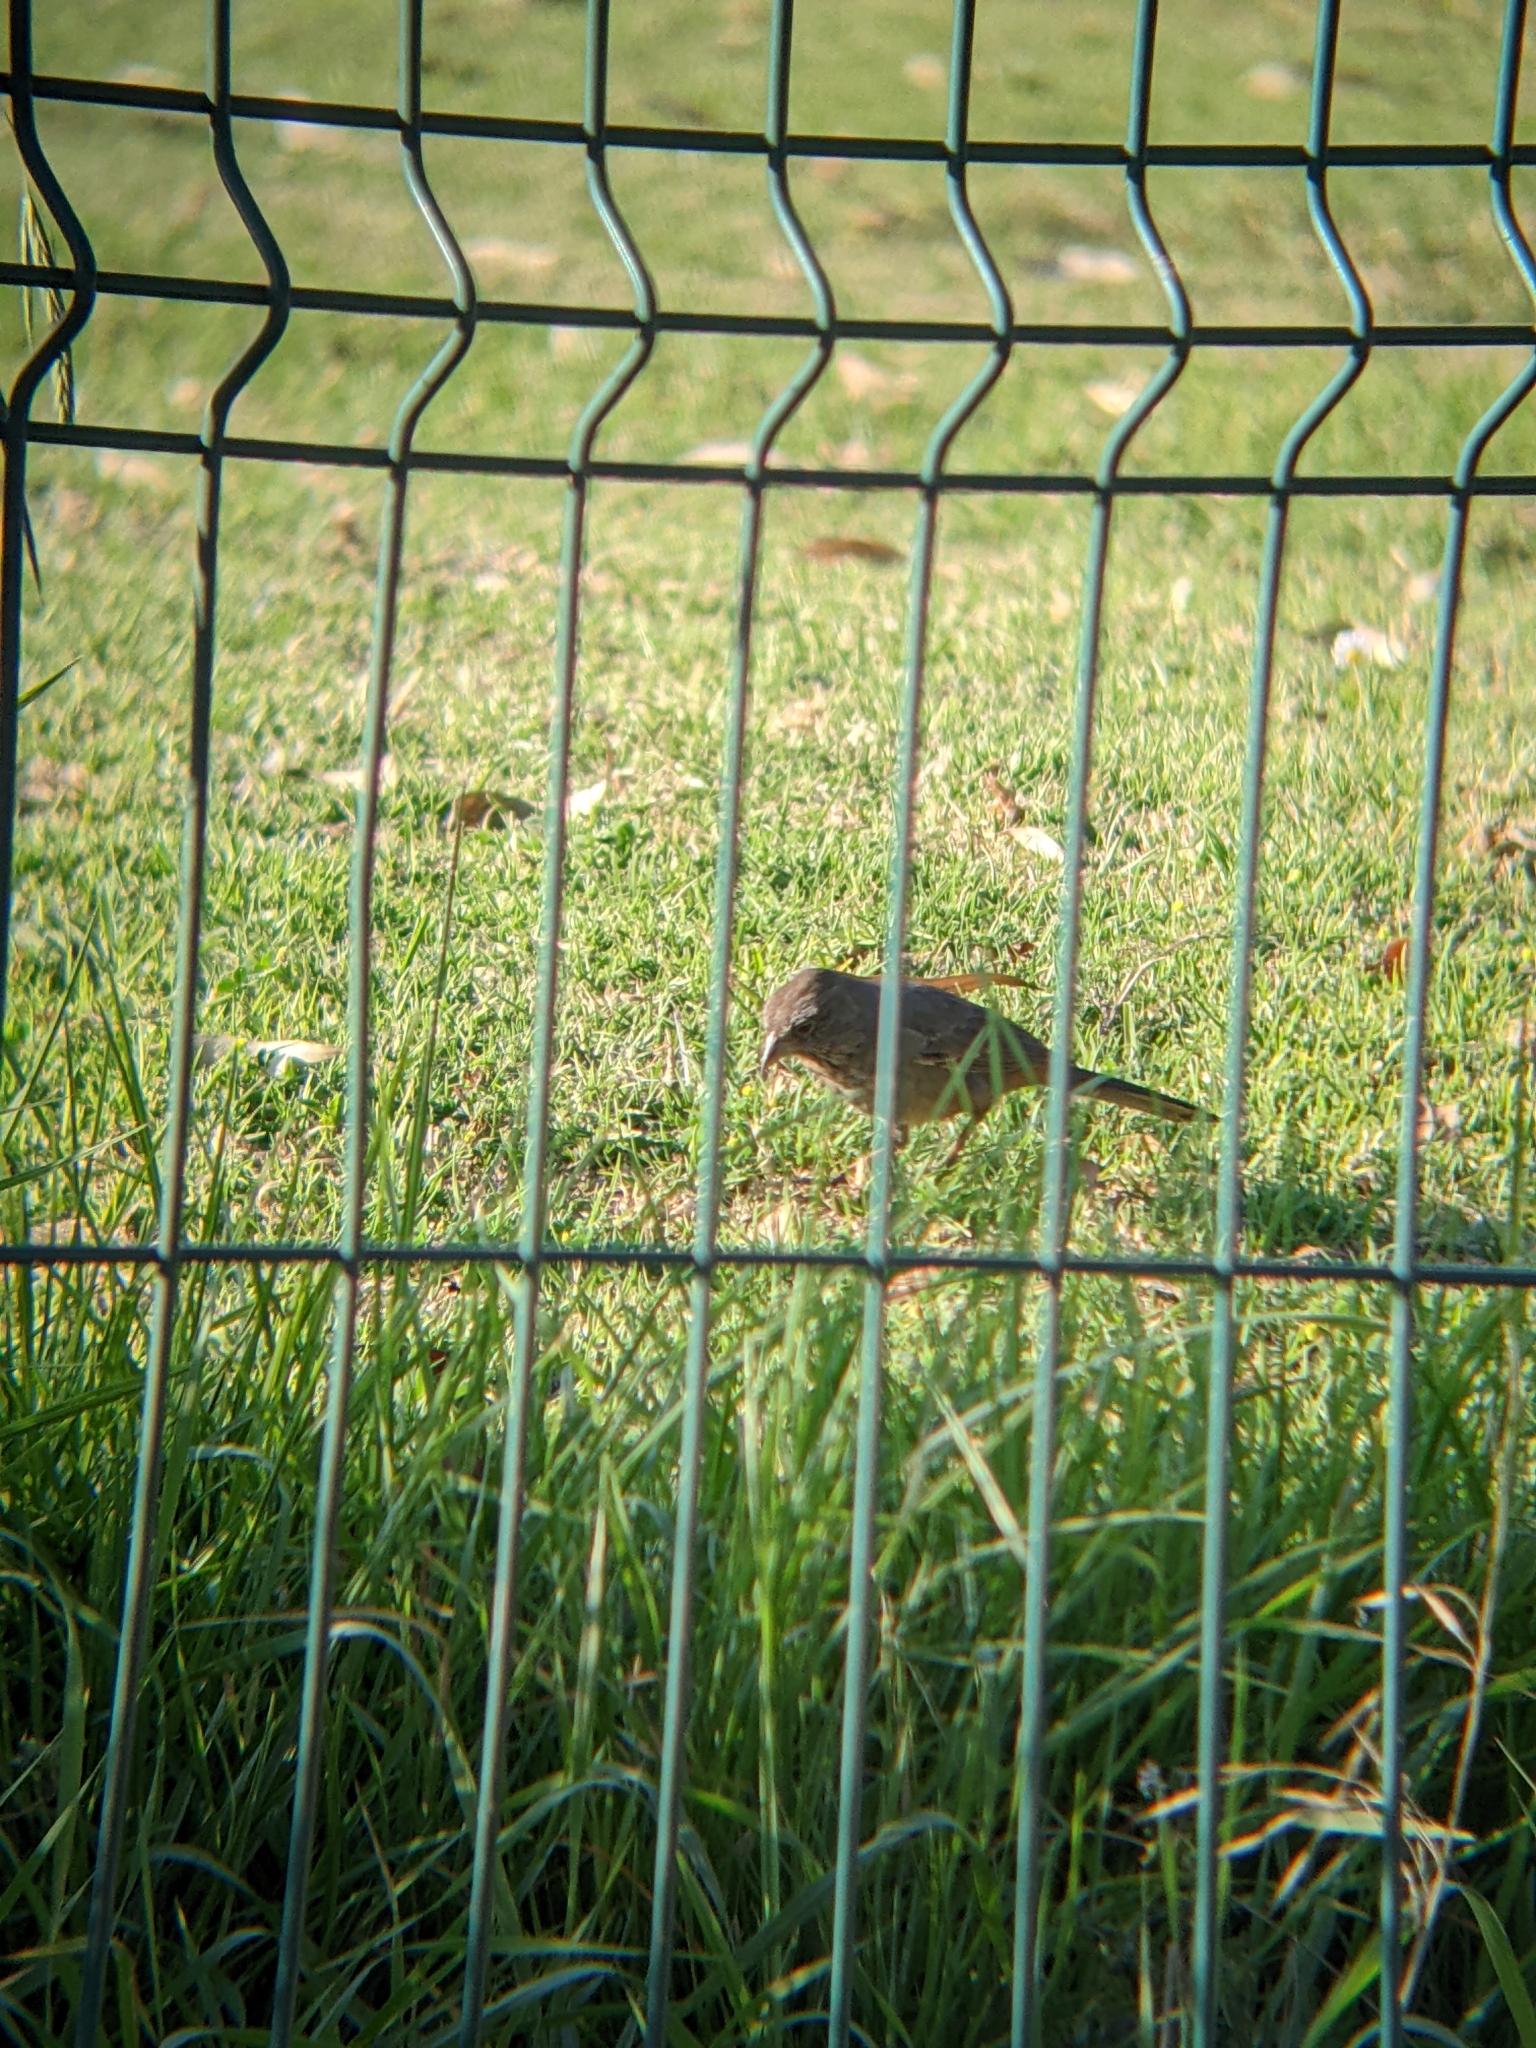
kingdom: Animalia
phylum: Chordata
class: Aves
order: Passeriformes
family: Passerellidae
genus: Melozone
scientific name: Melozone fusca
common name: Canyon towhee
